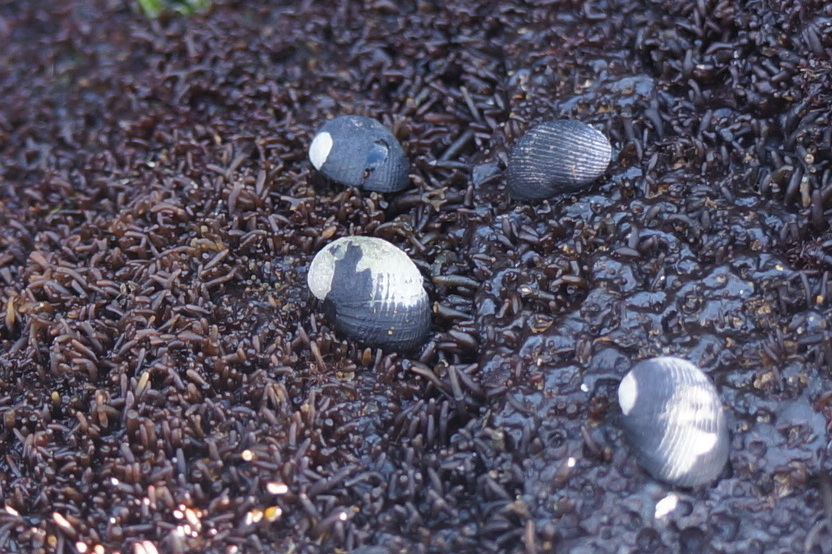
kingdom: Animalia
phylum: Mollusca
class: Gastropoda
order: Cycloneritida
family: Neritidae
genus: Nerita
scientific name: Nerita picea
